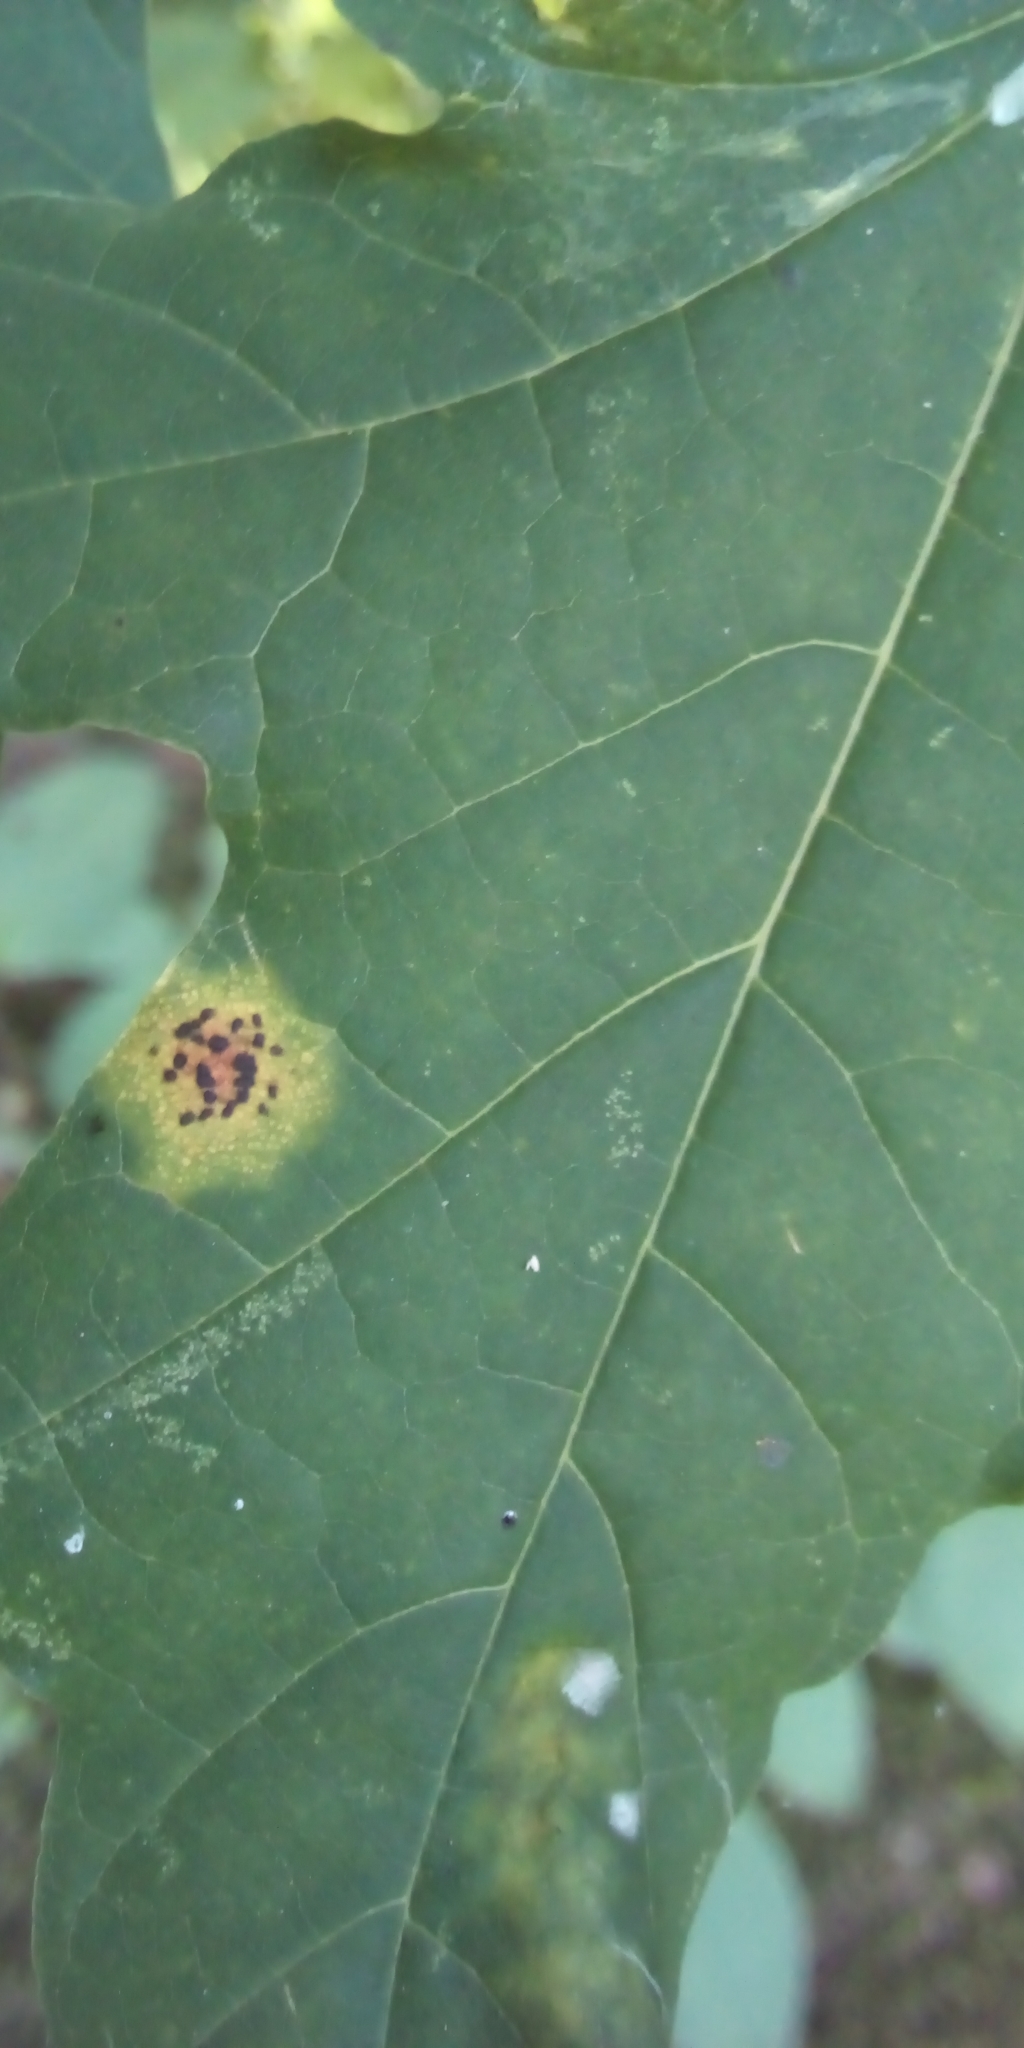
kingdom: Fungi
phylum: Ascomycota
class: Leotiomycetes
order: Rhytismatales
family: Rhytismataceae
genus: Rhytisma
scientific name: Rhytisma acerinum
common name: European tar spot
